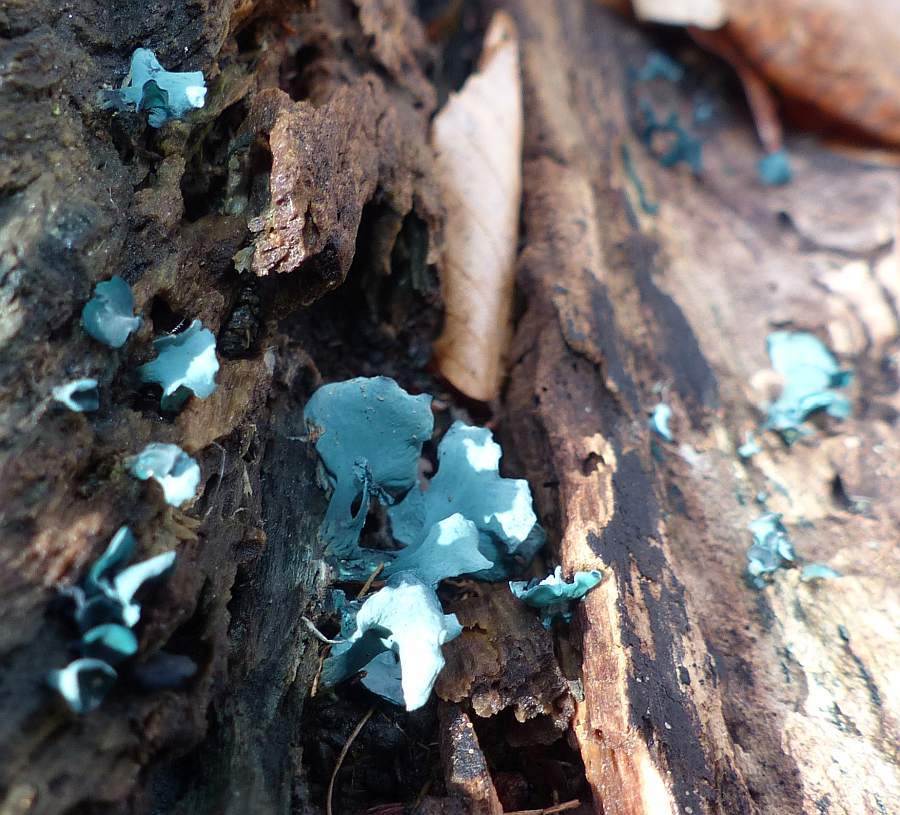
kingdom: Fungi
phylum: Ascomycota
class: Leotiomycetes
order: Helotiales
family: Chlorociboriaceae
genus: Chlorociboria
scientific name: Chlorociboria aeruginascens
